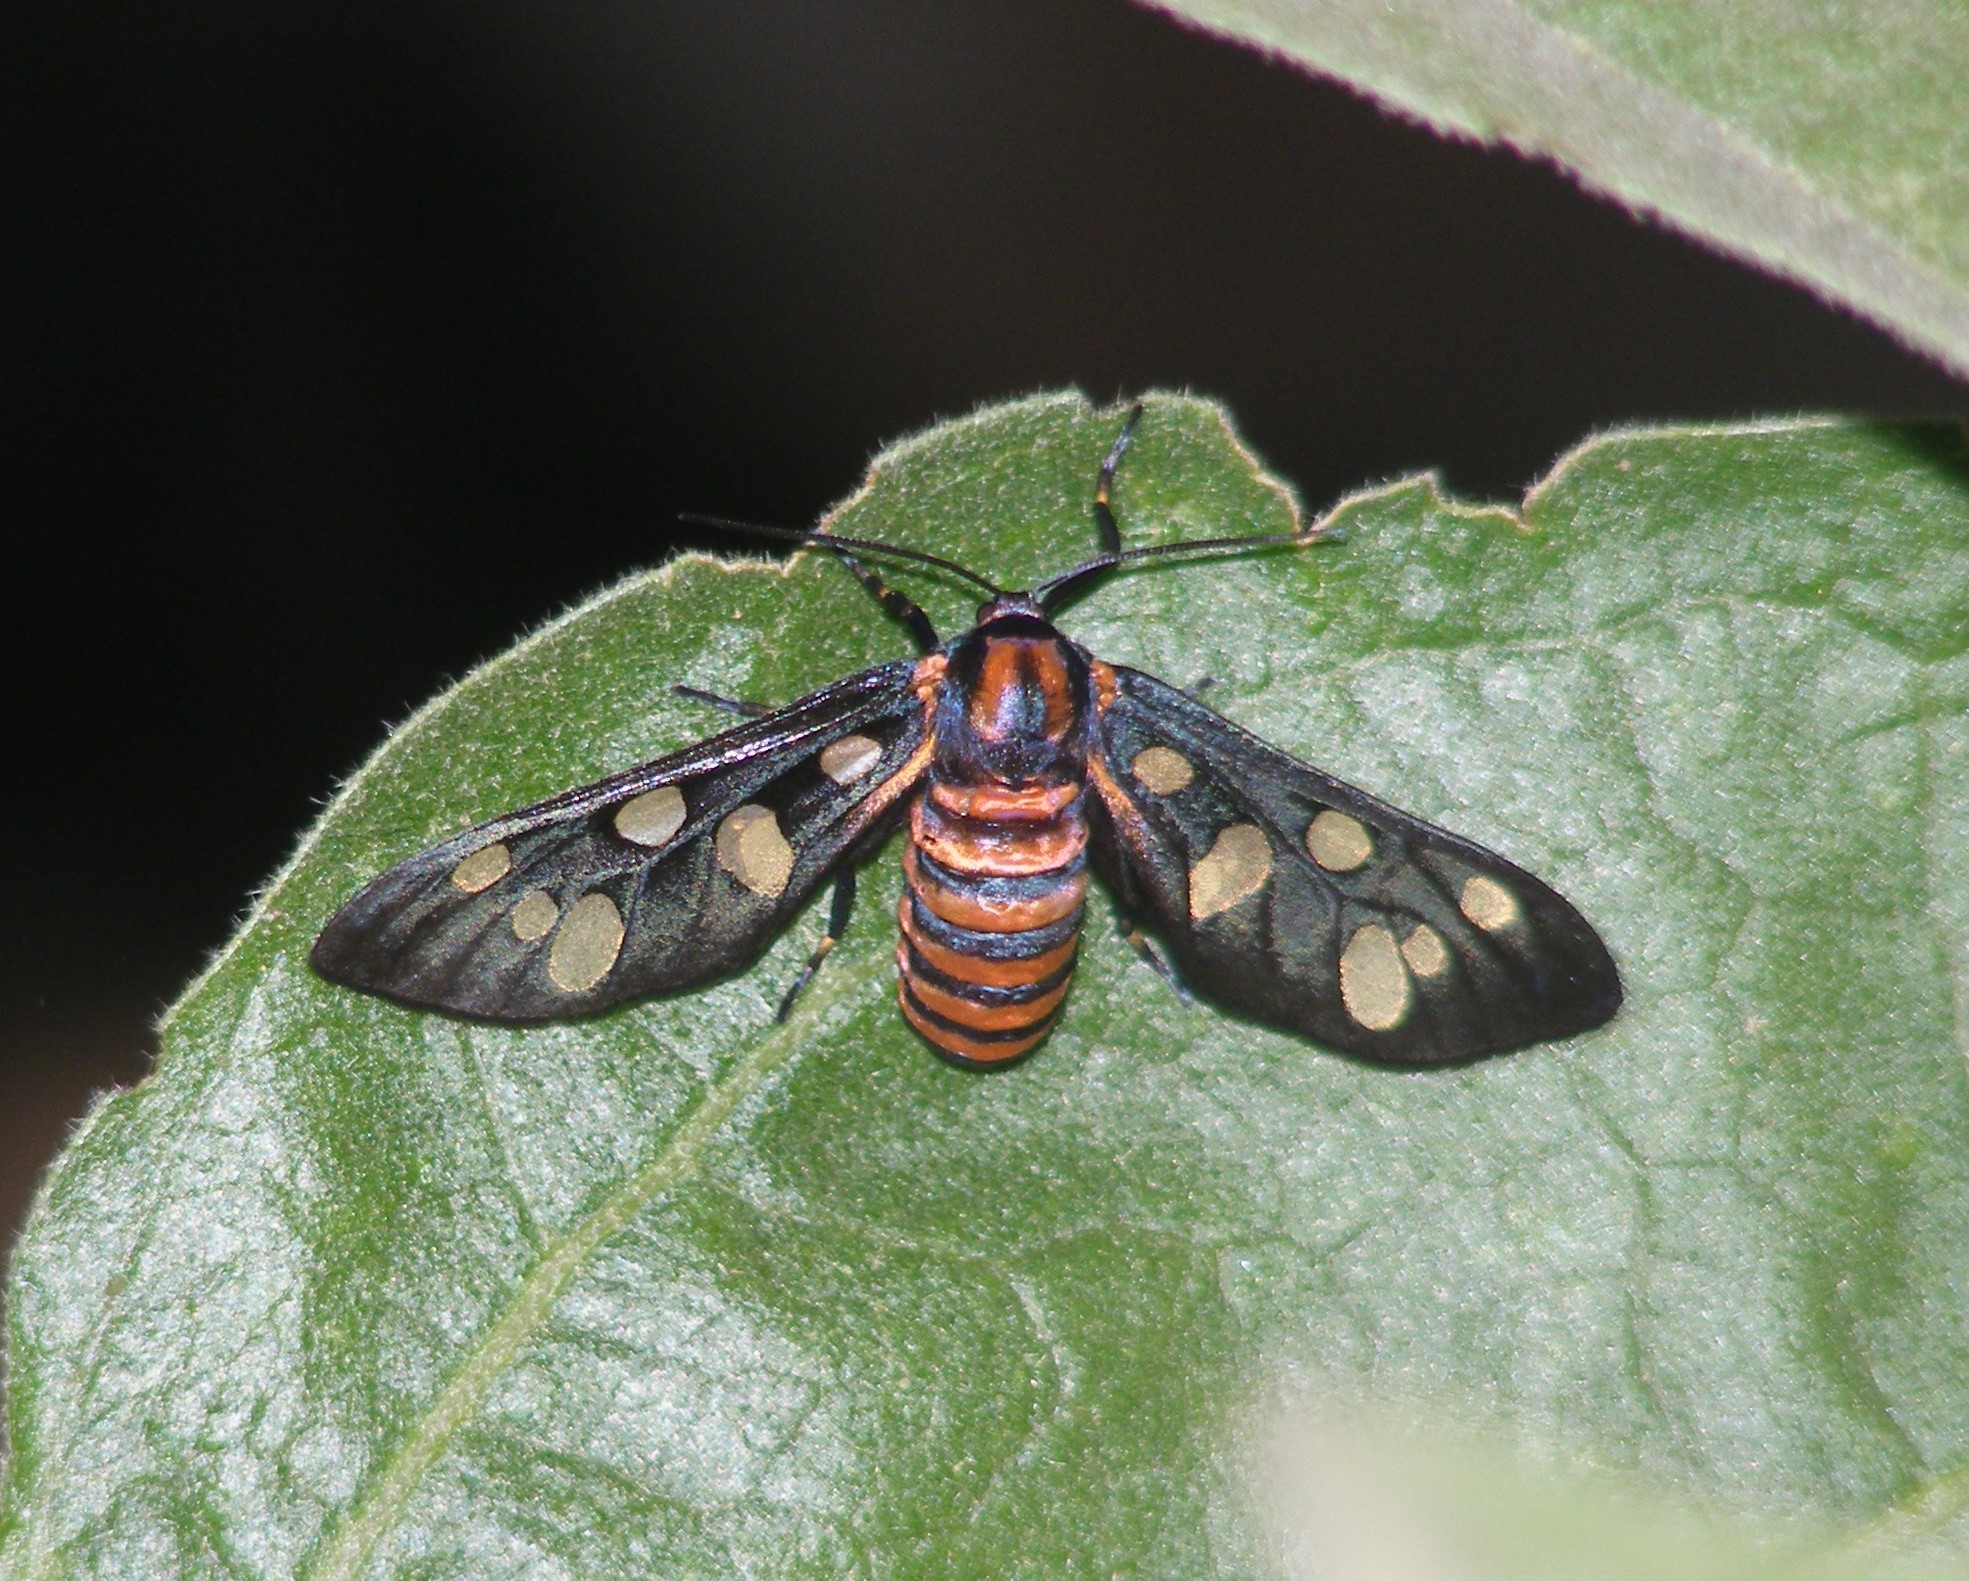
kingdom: Animalia
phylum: Arthropoda
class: Insecta
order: Lepidoptera
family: Erebidae
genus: Amata
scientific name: Amata passalis
